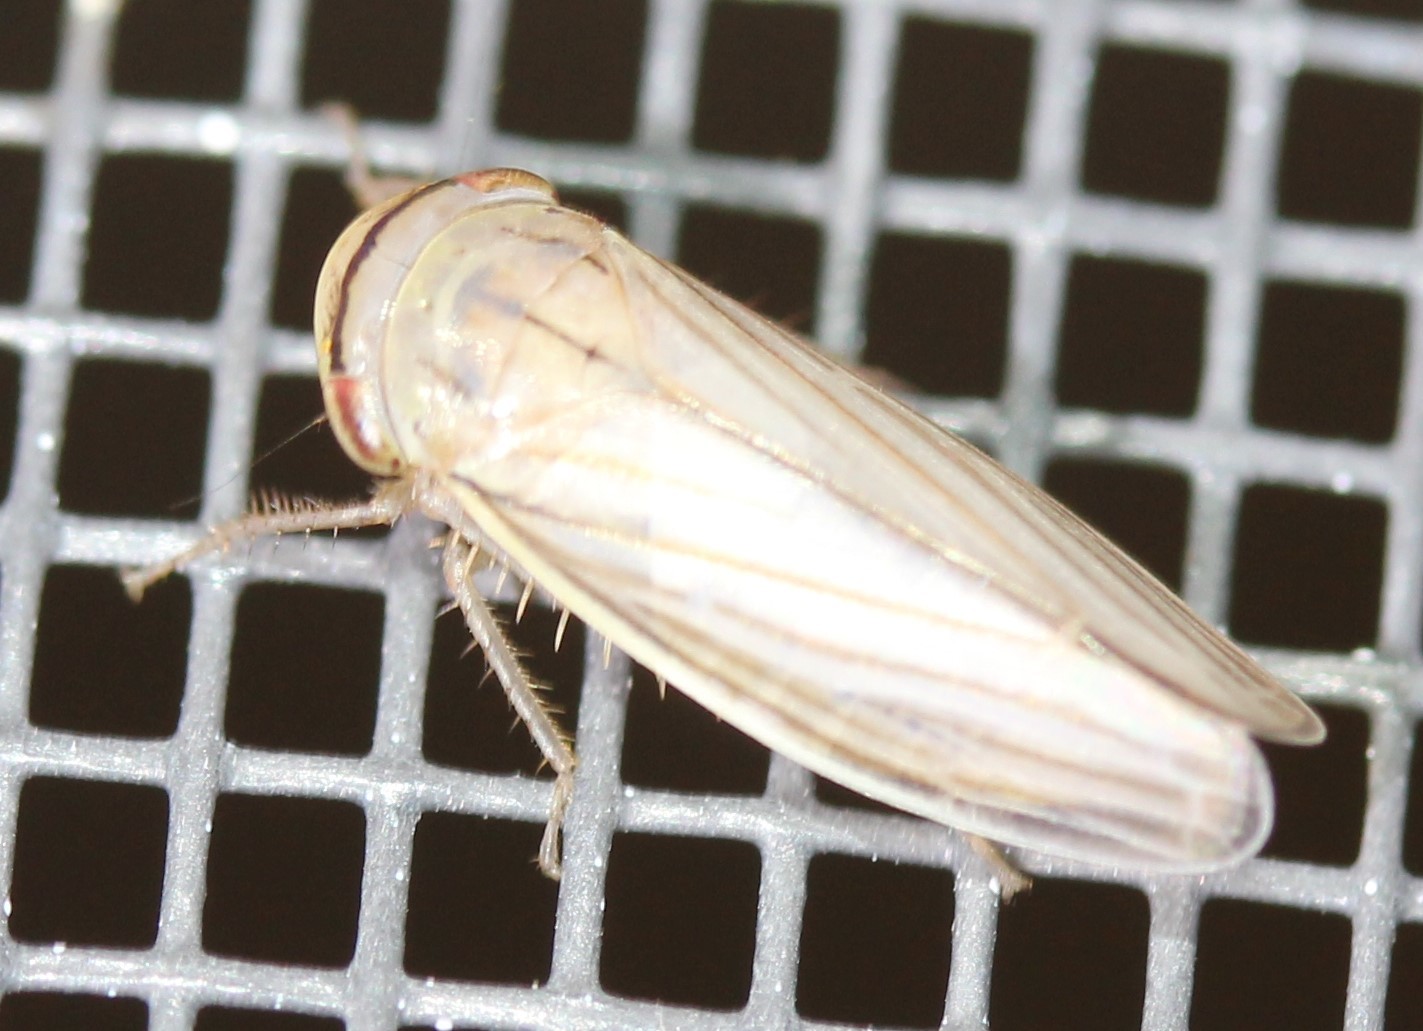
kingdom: Animalia
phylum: Arthropoda
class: Insecta
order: Hemiptera
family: Cicadellidae
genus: Athysanus
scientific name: Athysanus argentarius
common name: Silver leafhopper
